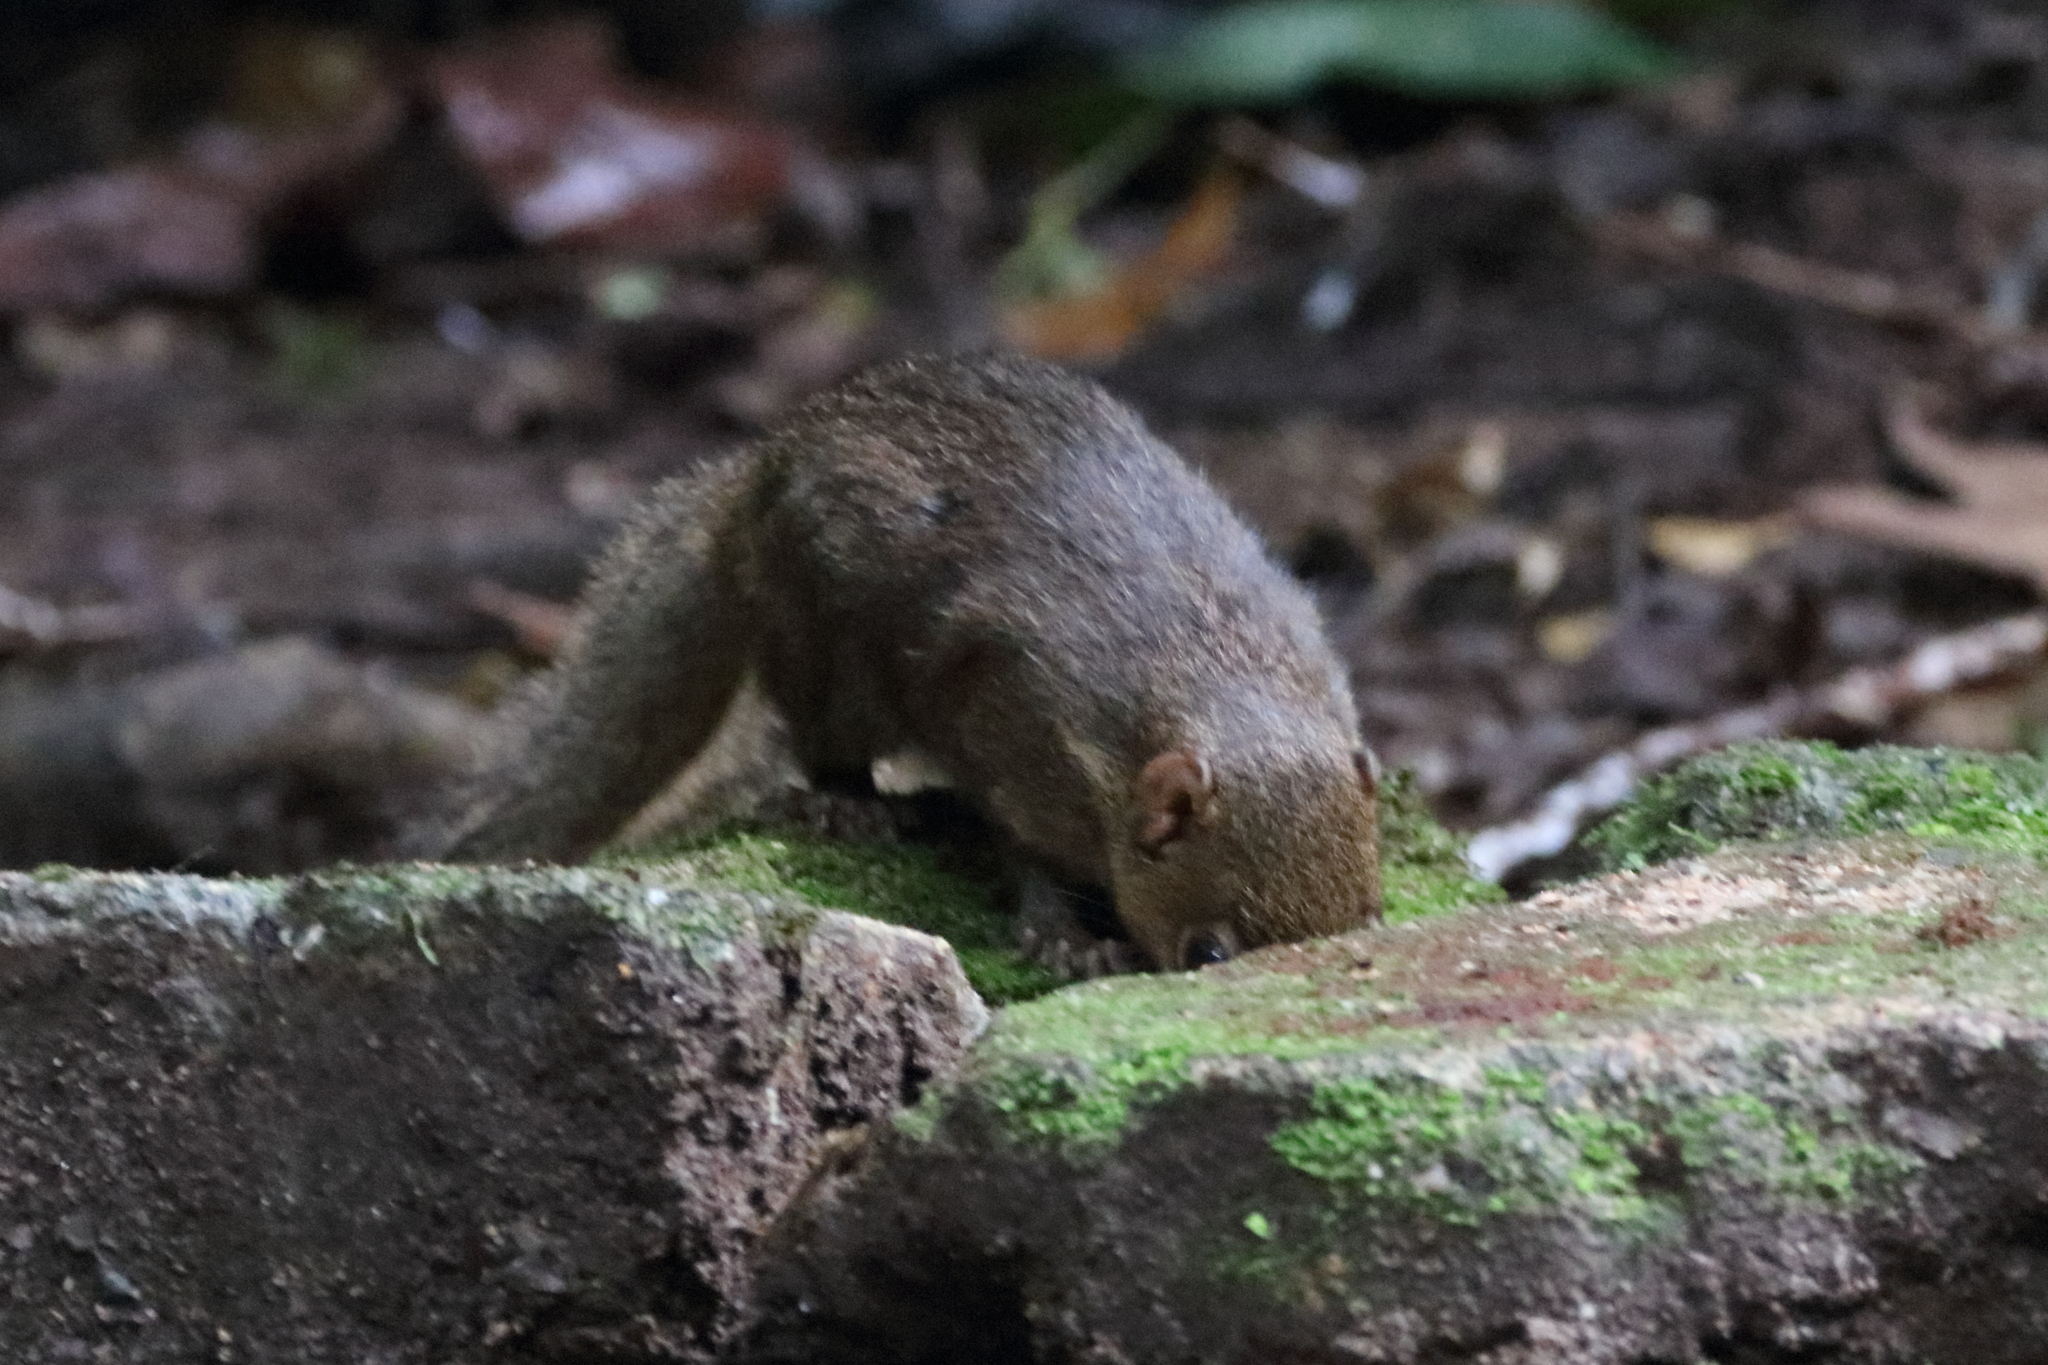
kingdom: Animalia
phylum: Chordata
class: Mammalia
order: Scandentia
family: Tupaiidae
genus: Tupaia
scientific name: Tupaia belangeri
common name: Northern treeshrew
